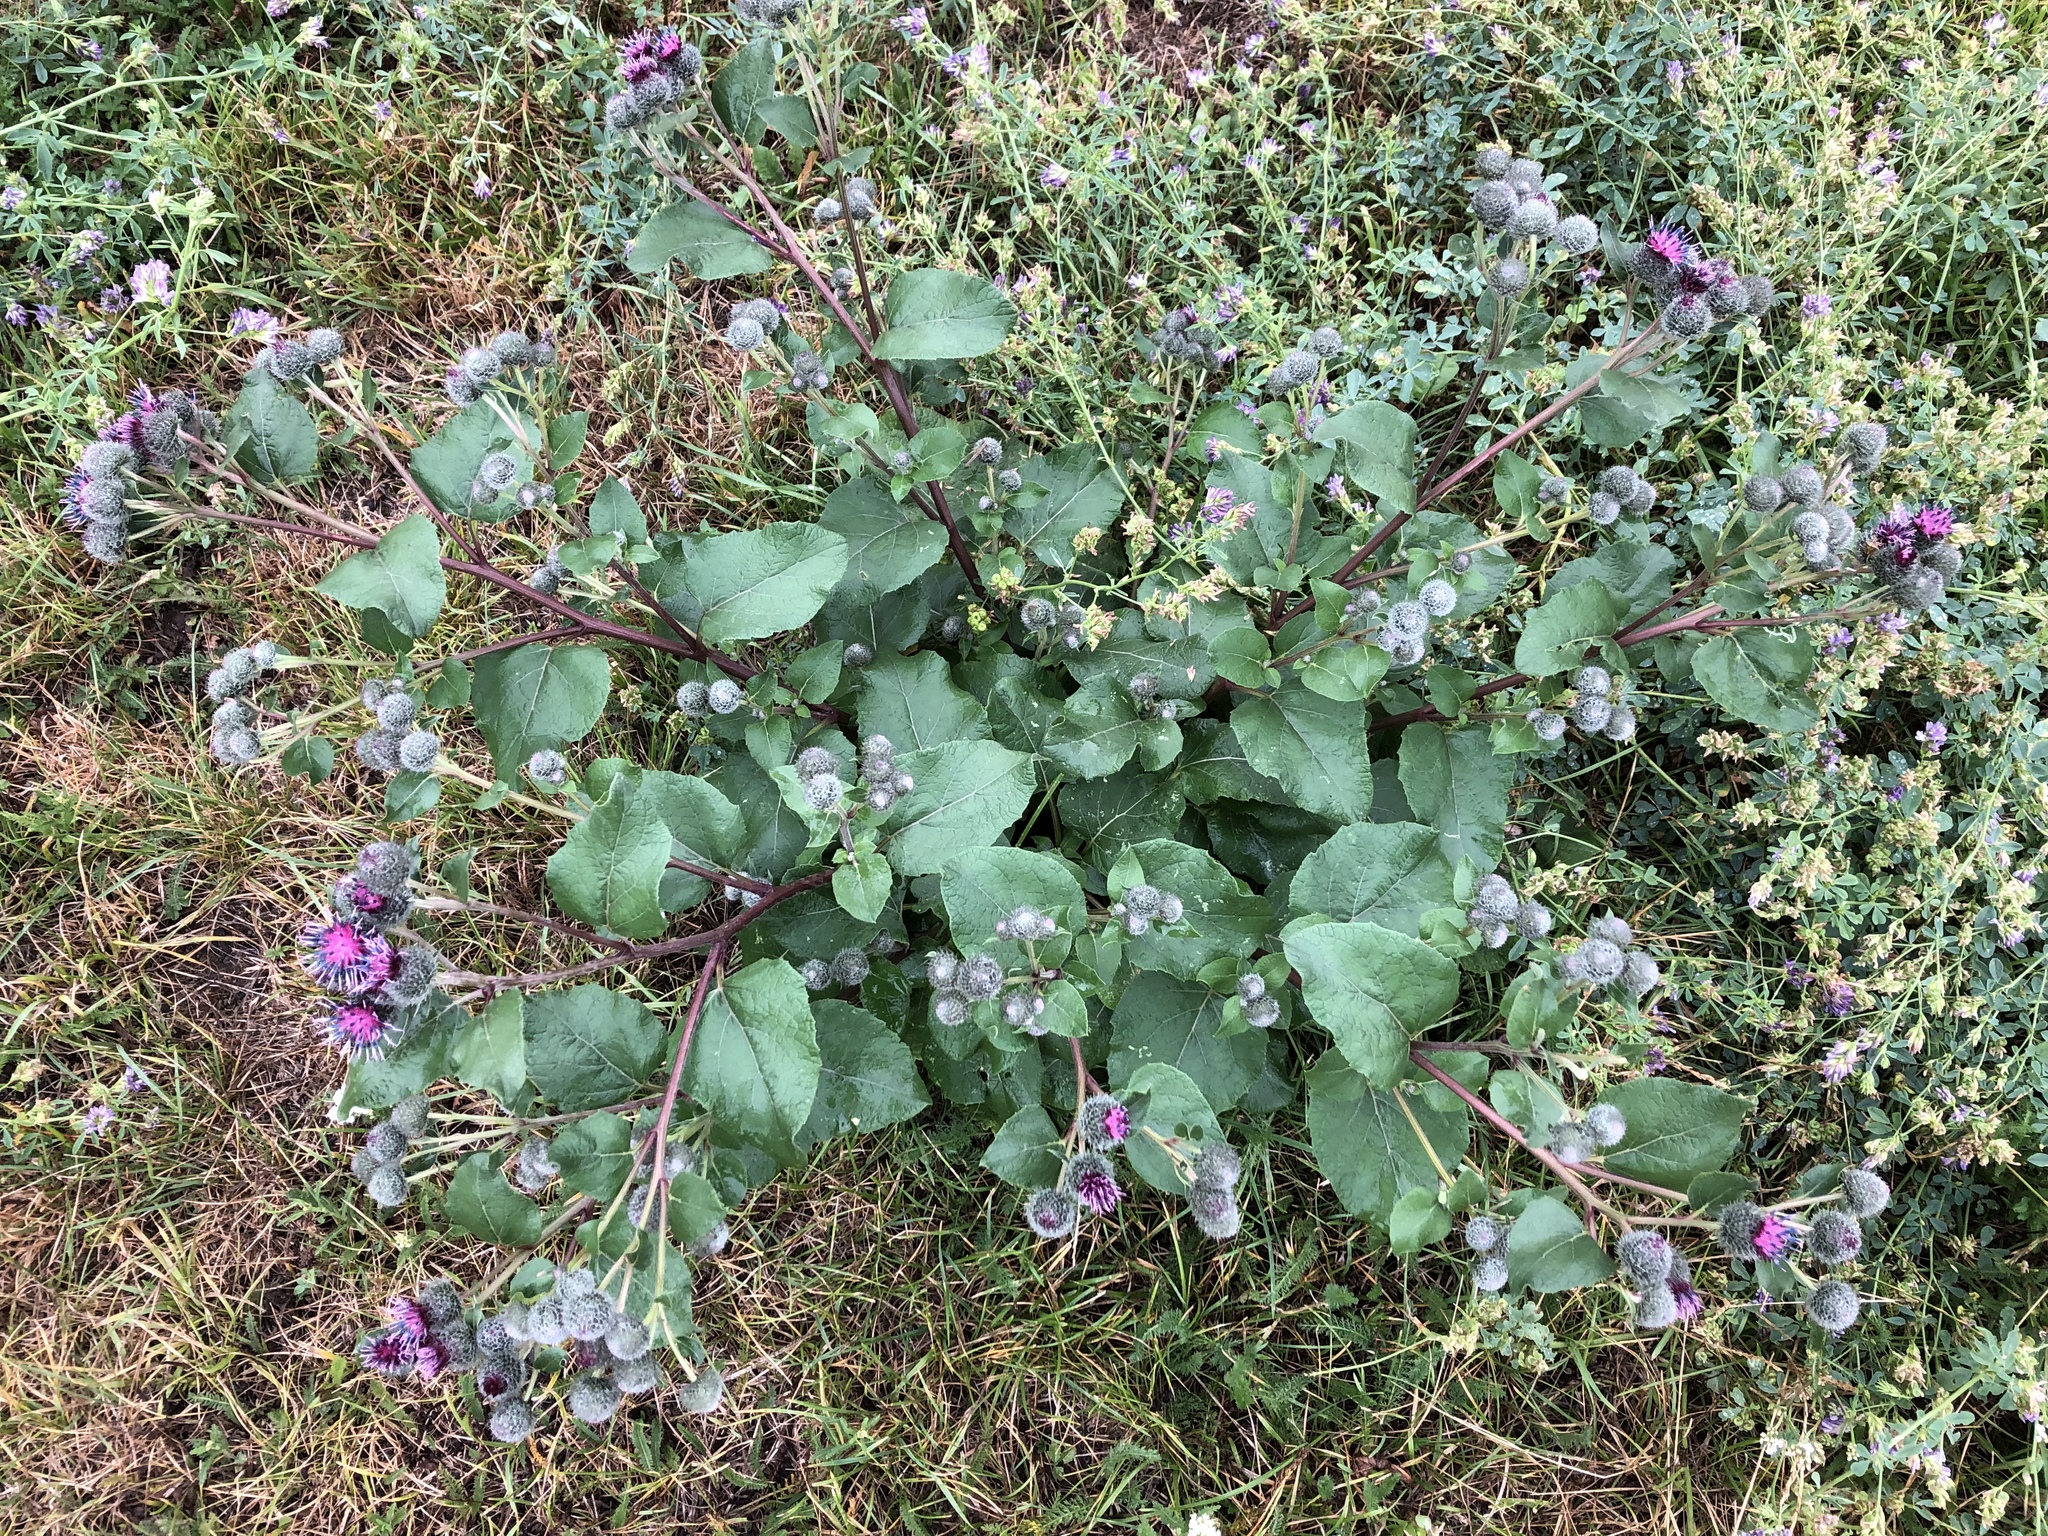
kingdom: Plantae
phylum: Tracheophyta
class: Magnoliopsida
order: Asterales
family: Asteraceae
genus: Arctium
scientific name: Arctium tomentosum
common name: Woolly burdock
